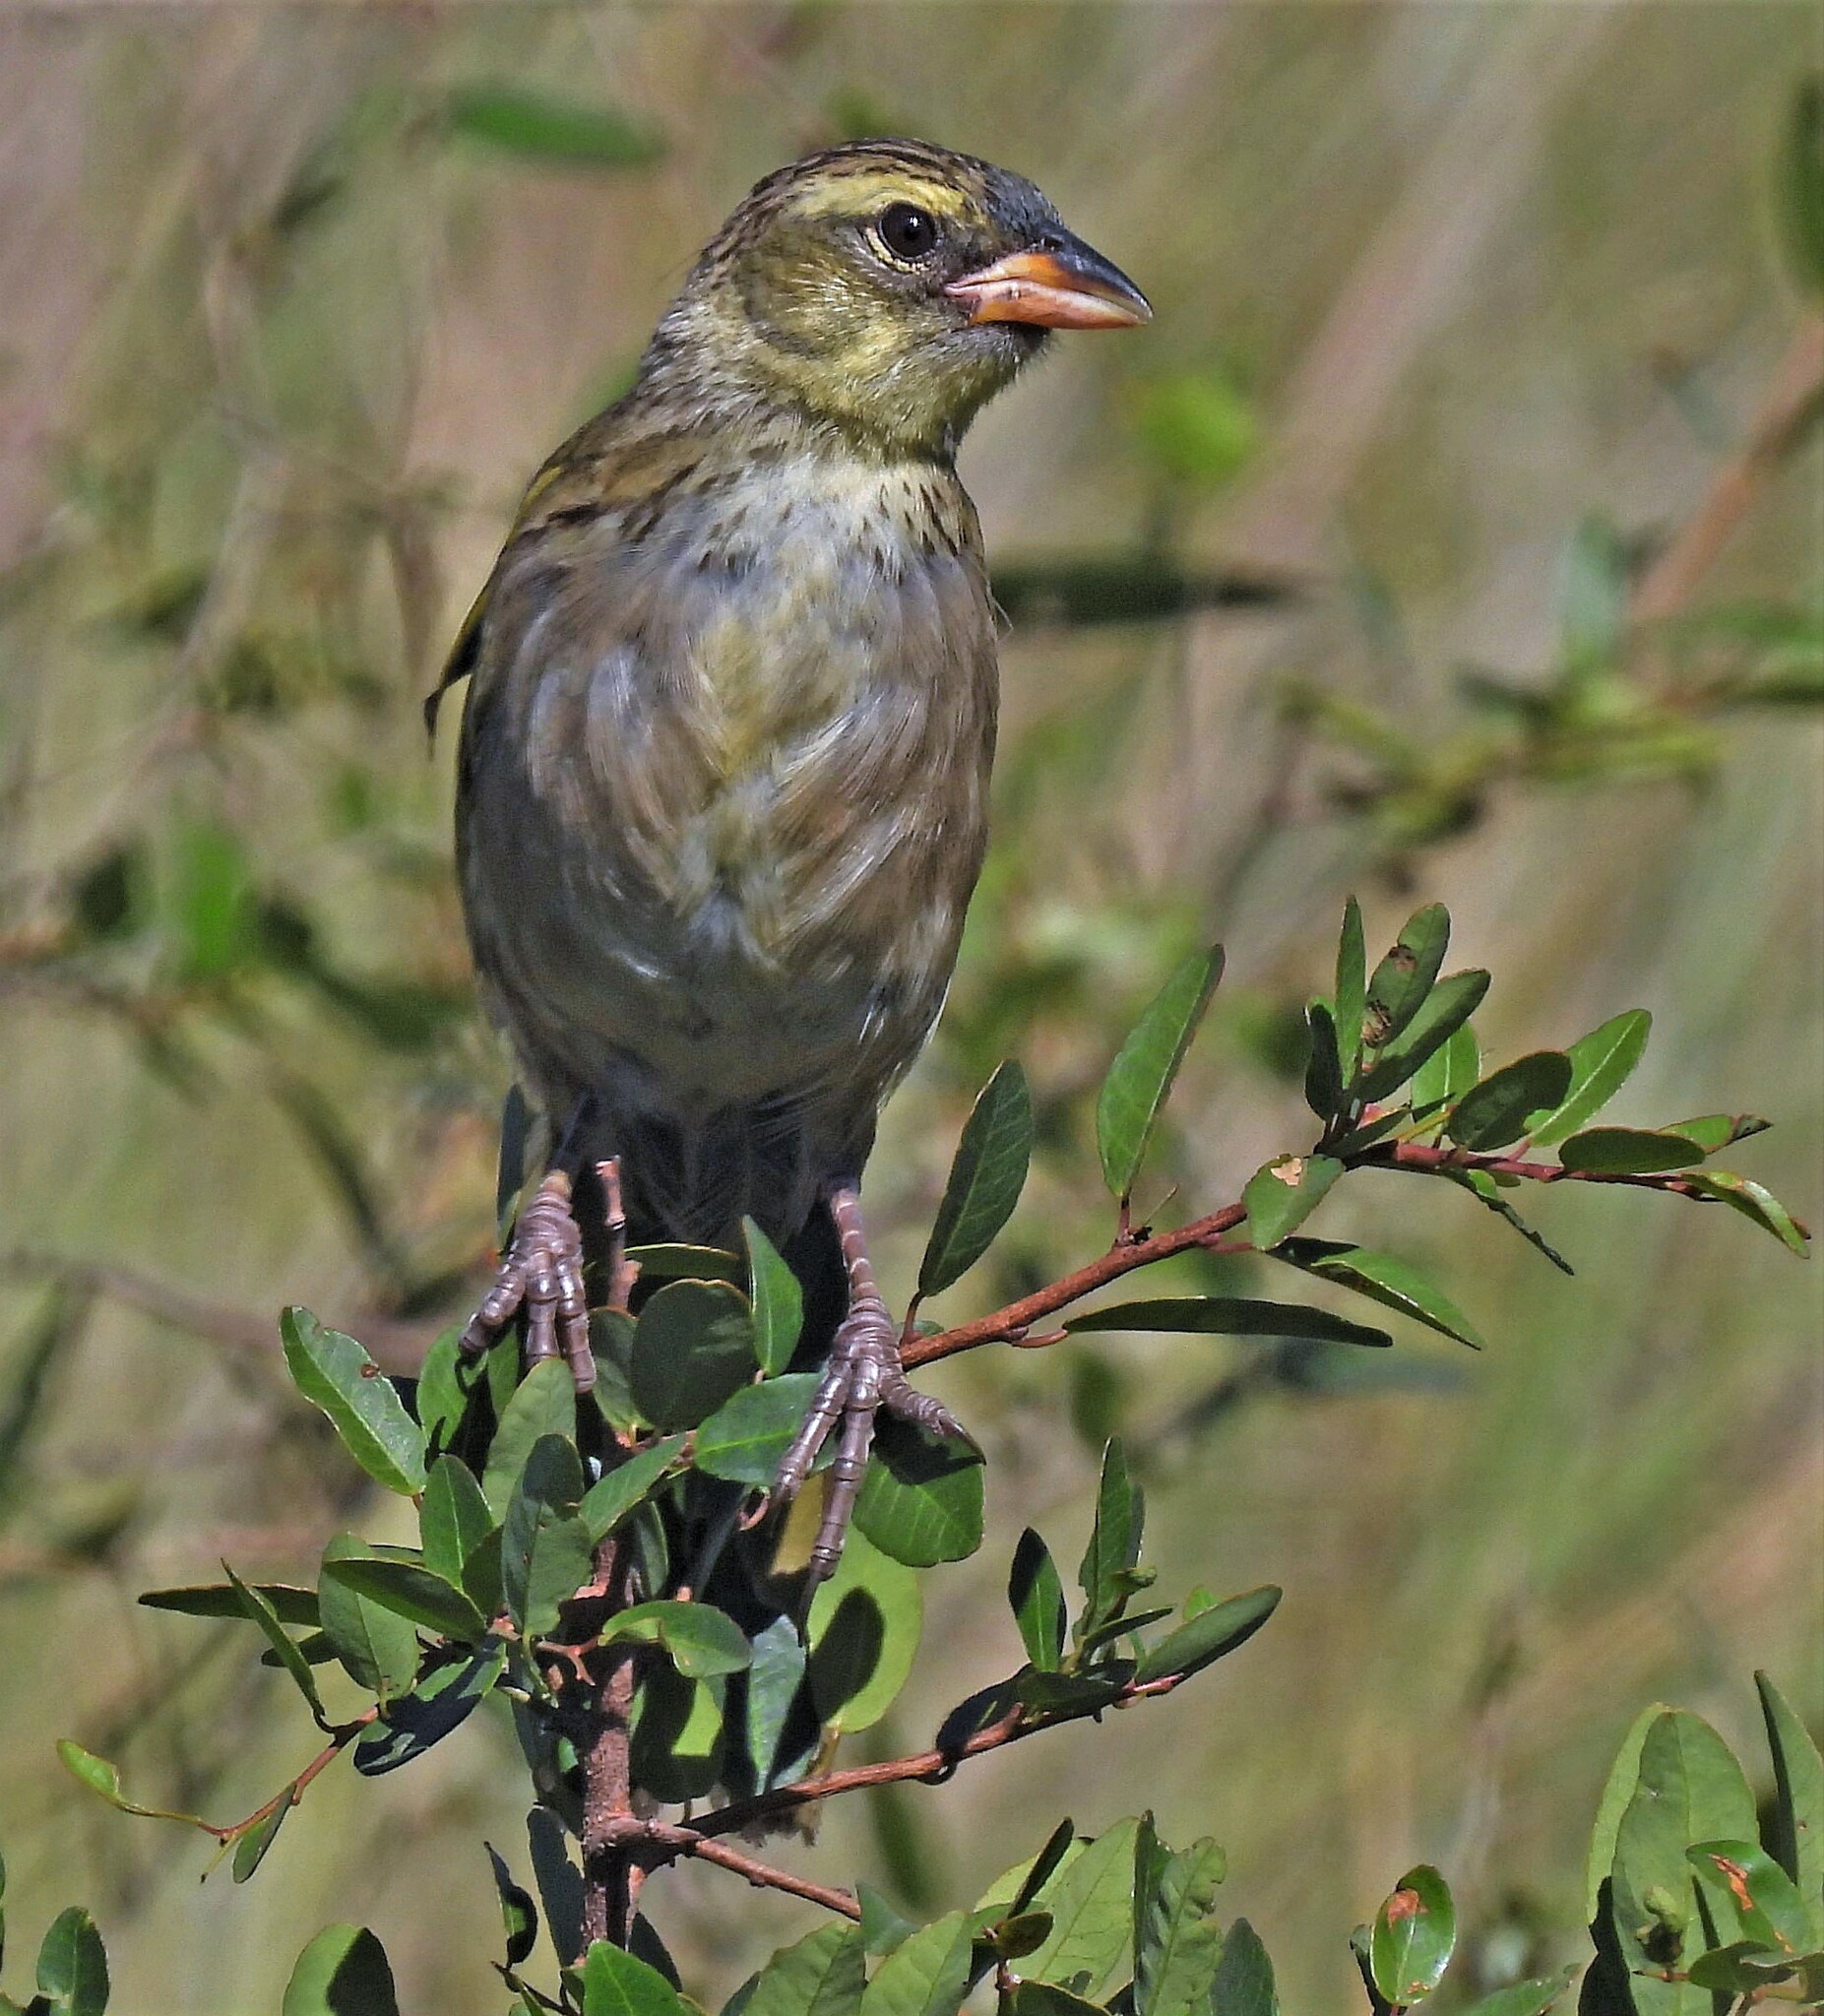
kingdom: Animalia
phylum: Chordata
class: Aves
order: Passeriformes
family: Thraupidae
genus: Embernagra
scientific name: Embernagra platensis
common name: Pampa finch
